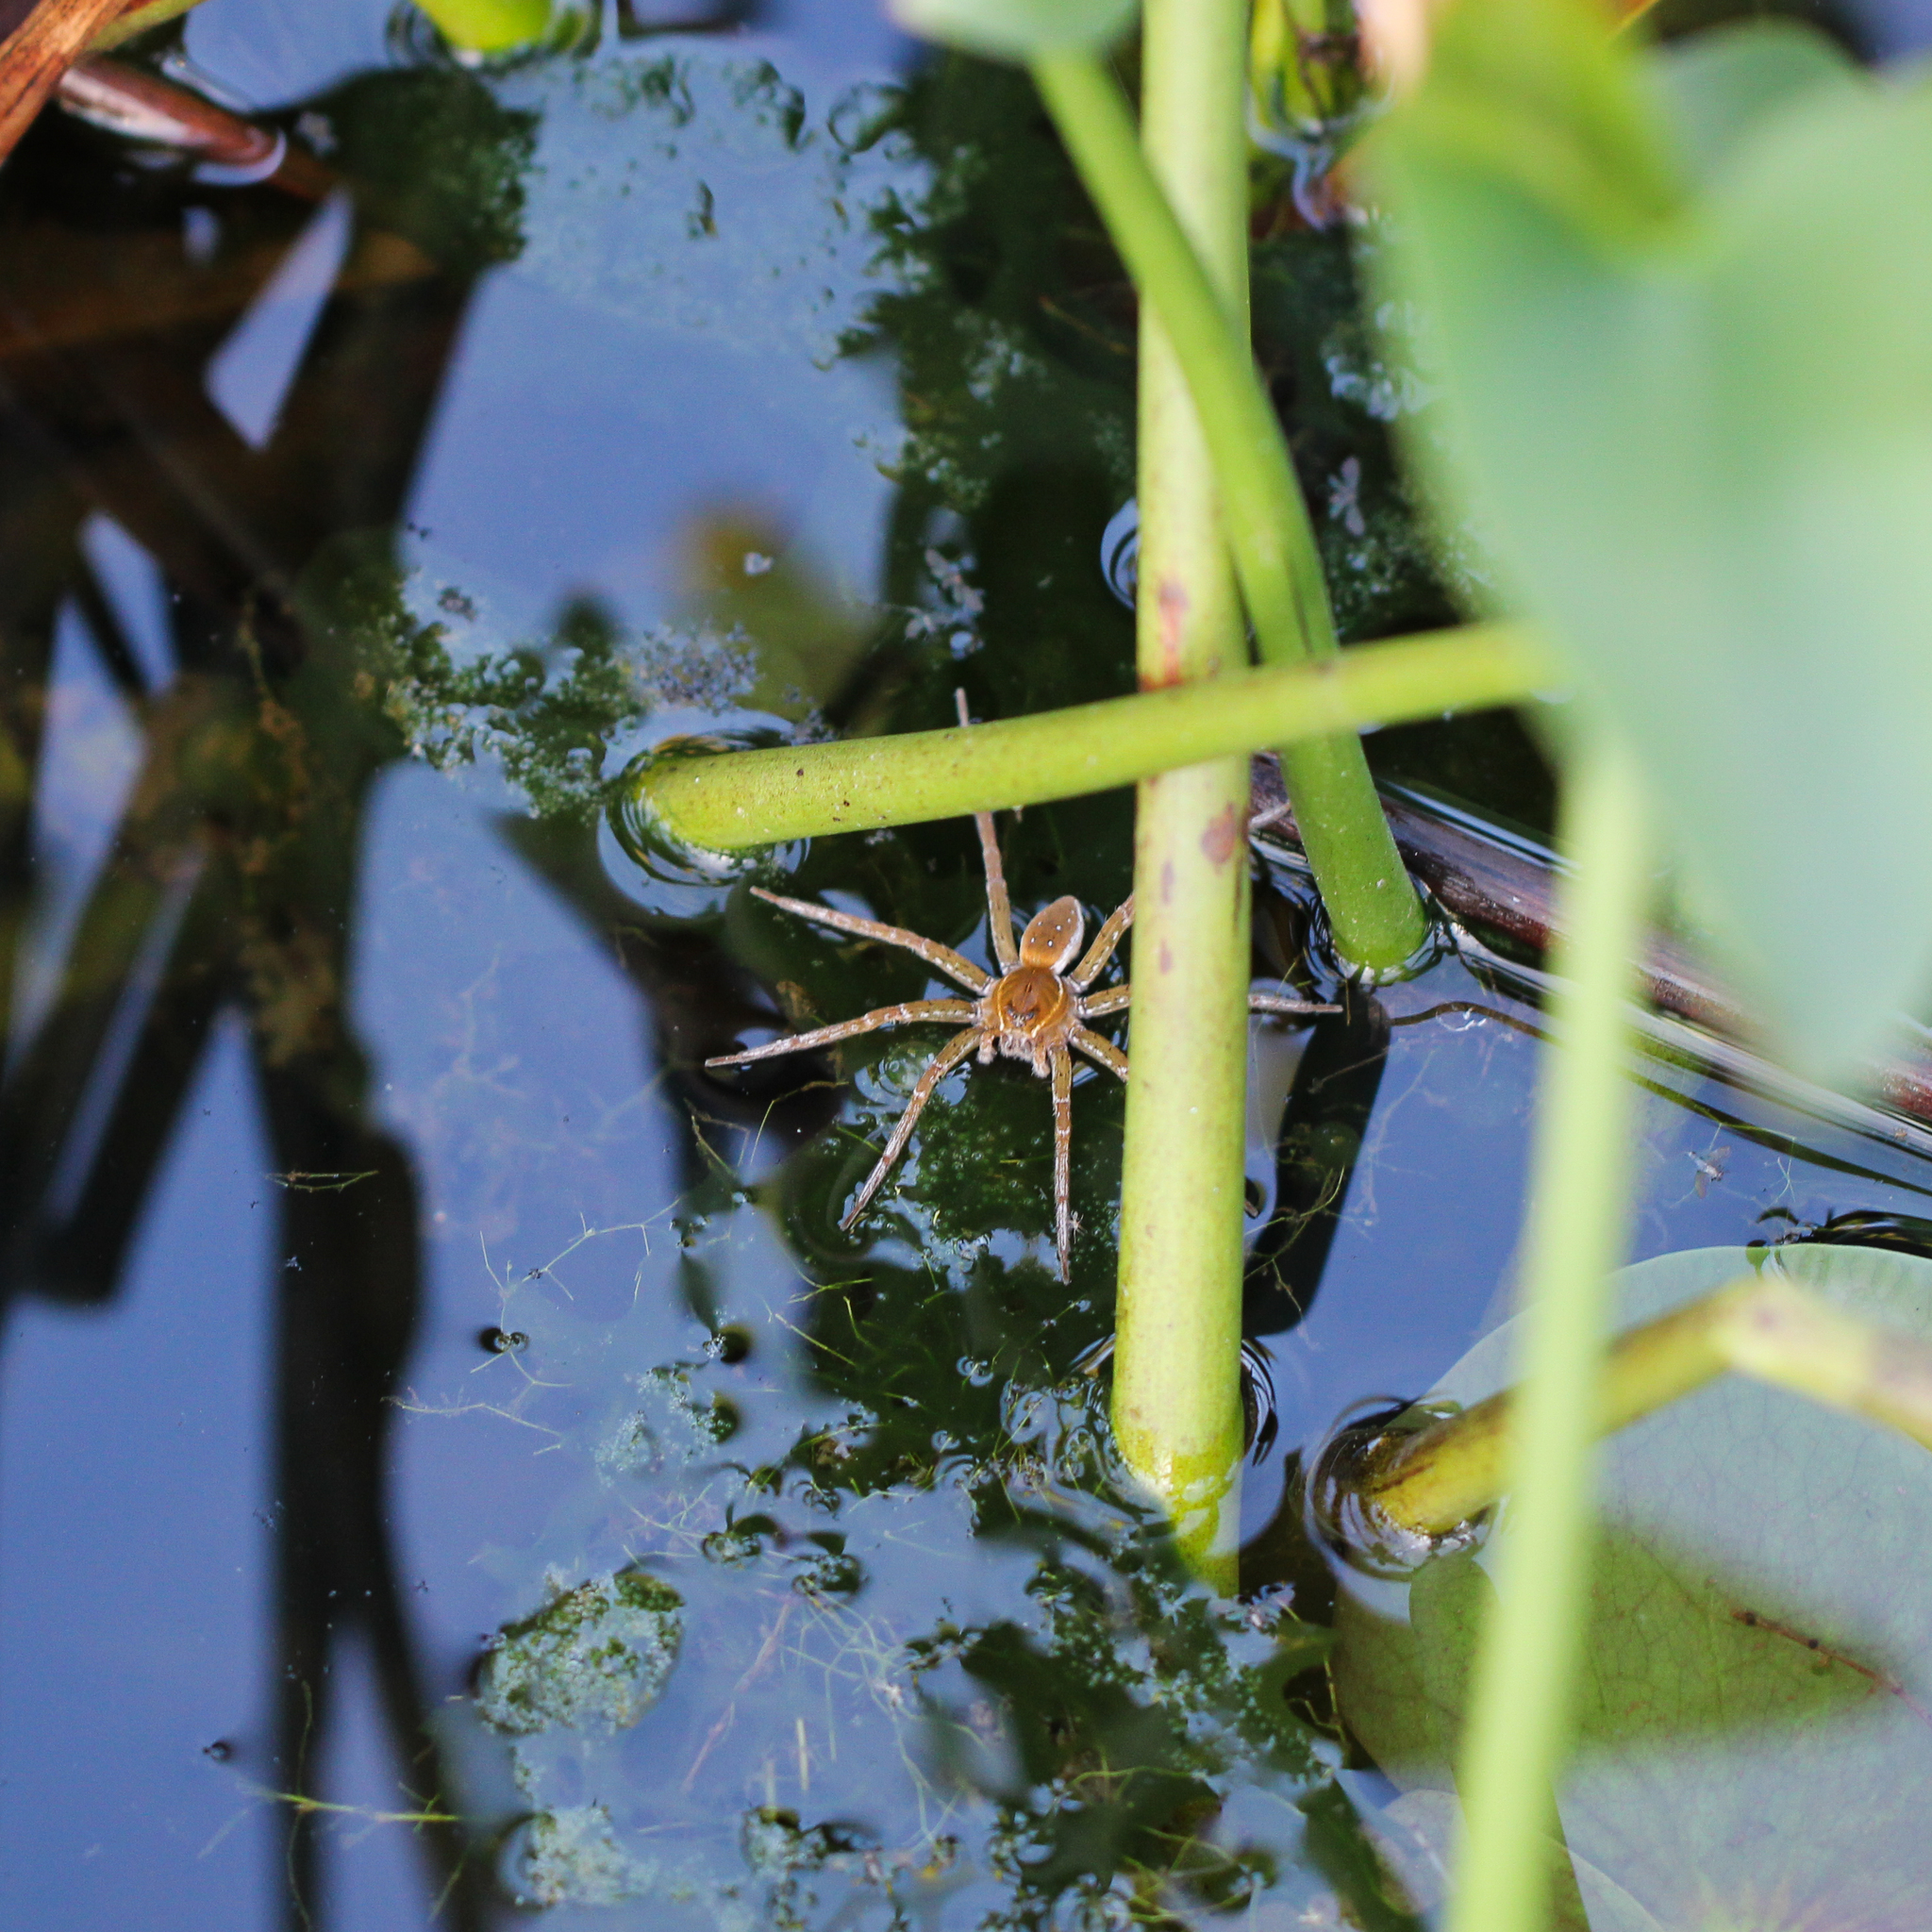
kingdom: Animalia
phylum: Arthropoda
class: Arachnida
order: Araneae
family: Pisauridae
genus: Dolomedes
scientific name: Dolomedes triton
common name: Six-spotted fishing spider
